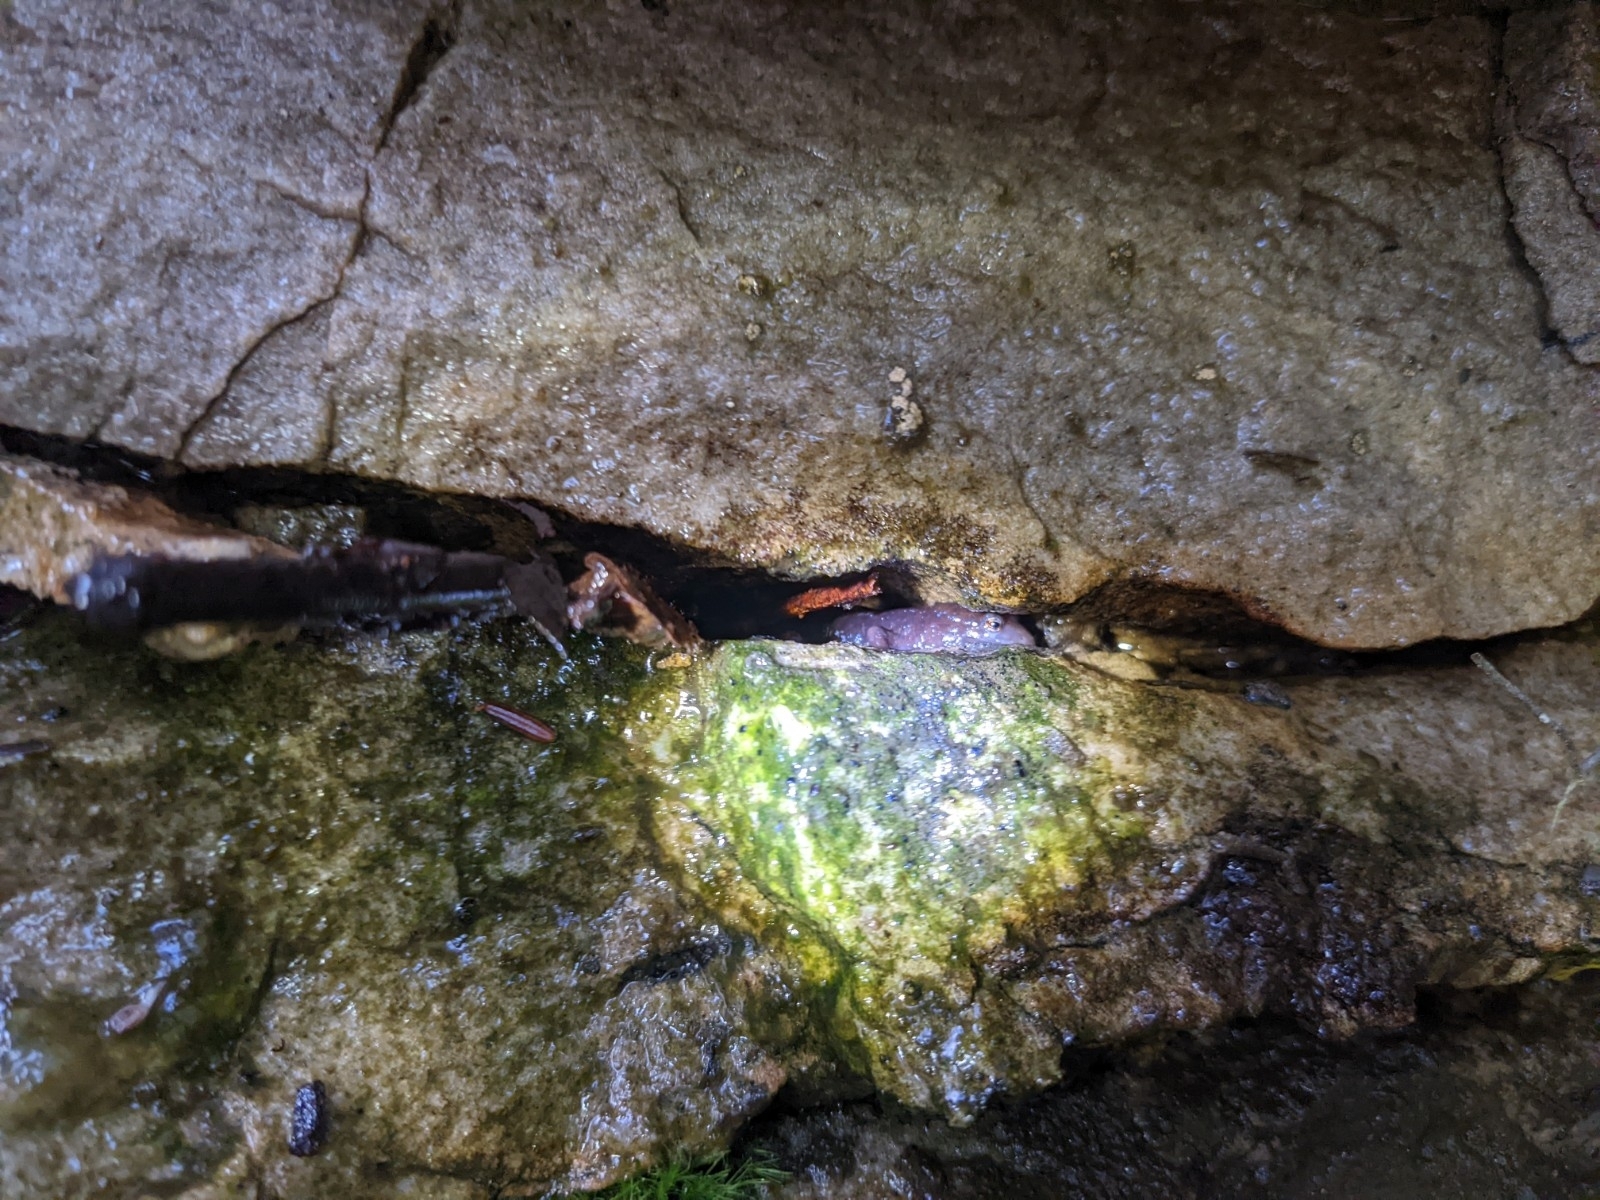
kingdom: Animalia
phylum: Chordata
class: Amphibia
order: Caudata
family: Plethodontidae
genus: Desmognathus
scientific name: Desmognathus monticola
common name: Seal salamander
